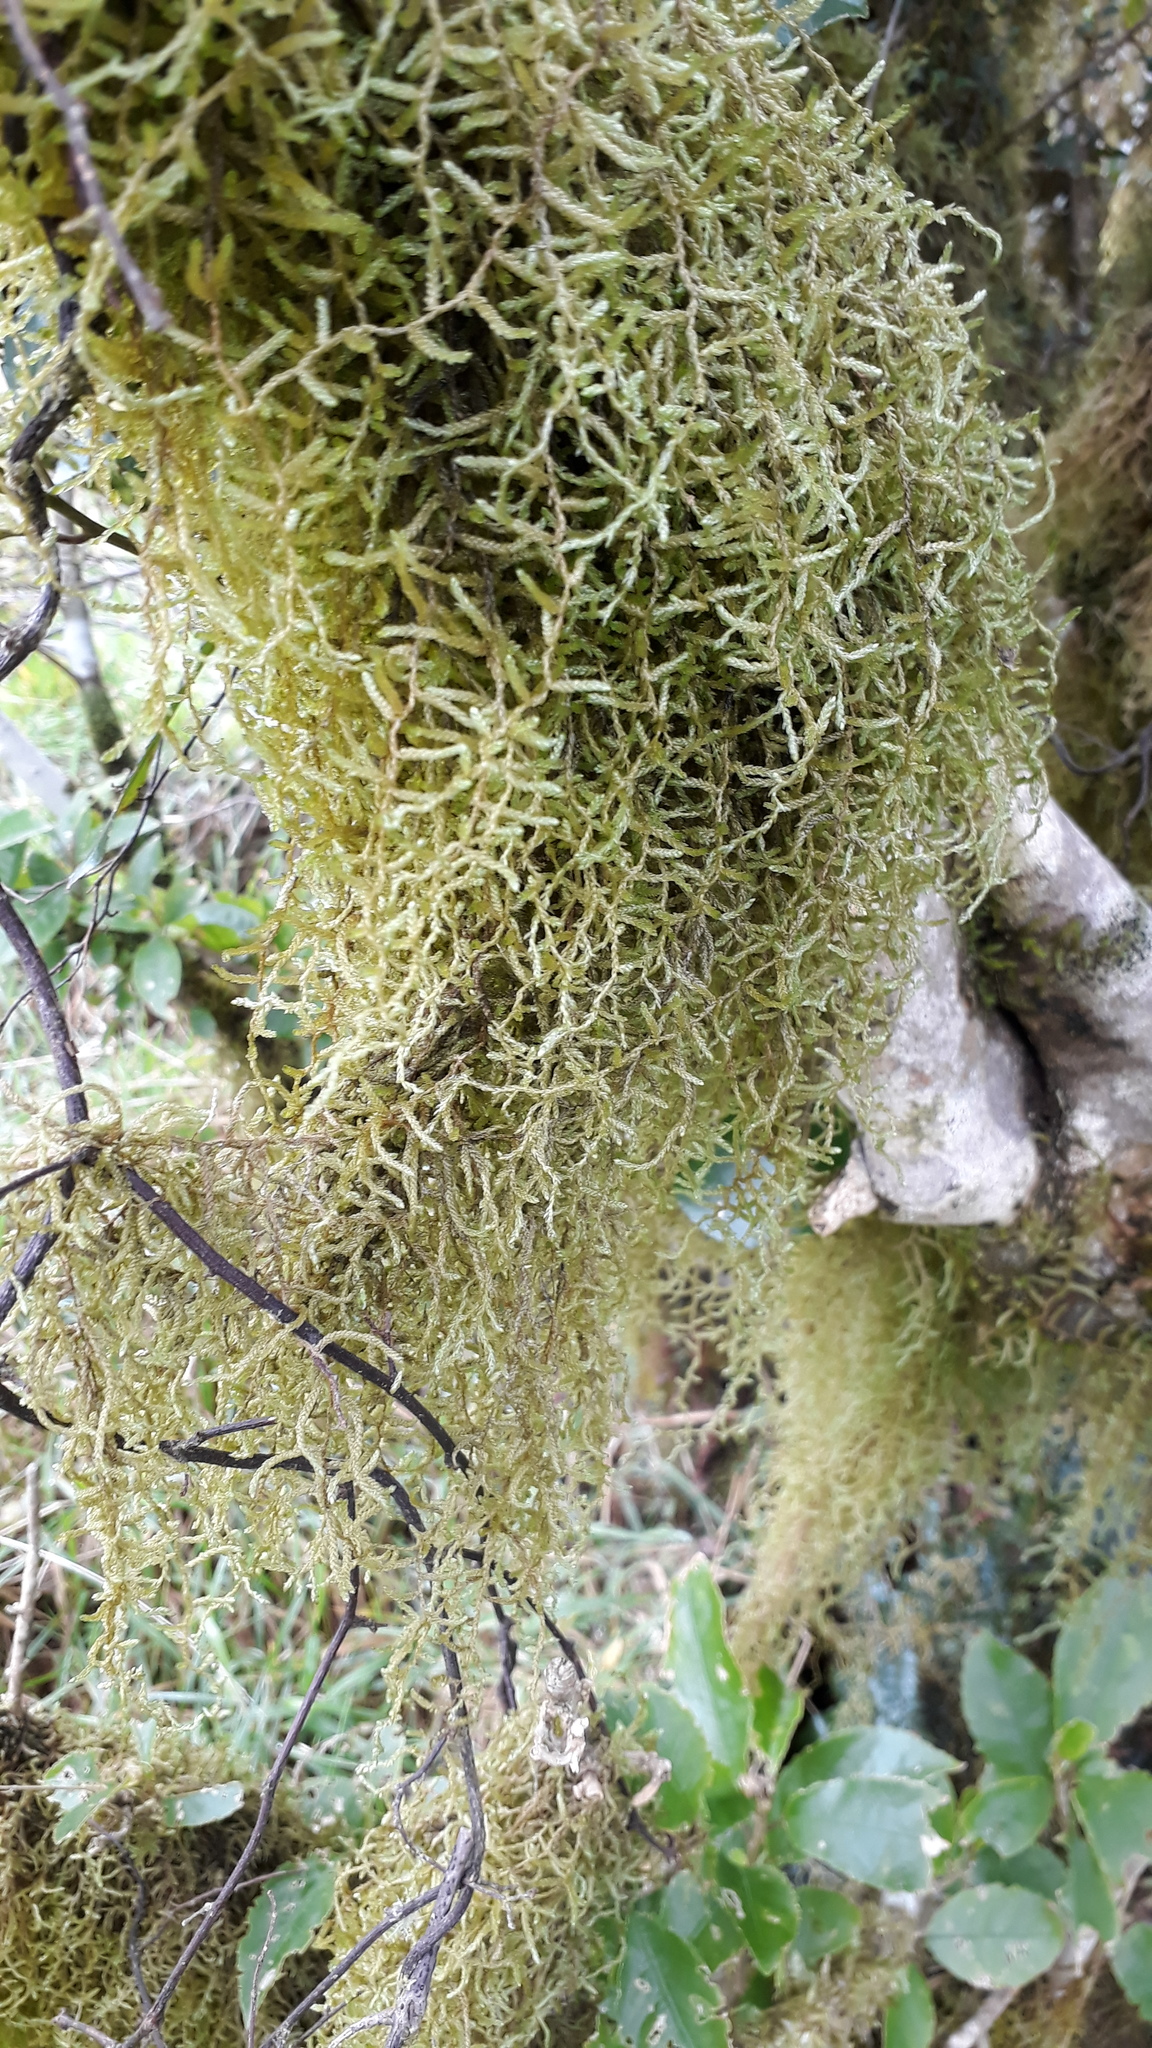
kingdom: Plantae
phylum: Bryophyta
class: Bryopsida
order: Hypnales
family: Lembophyllaceae
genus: Weymouthia
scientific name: Weymouthia mollis
